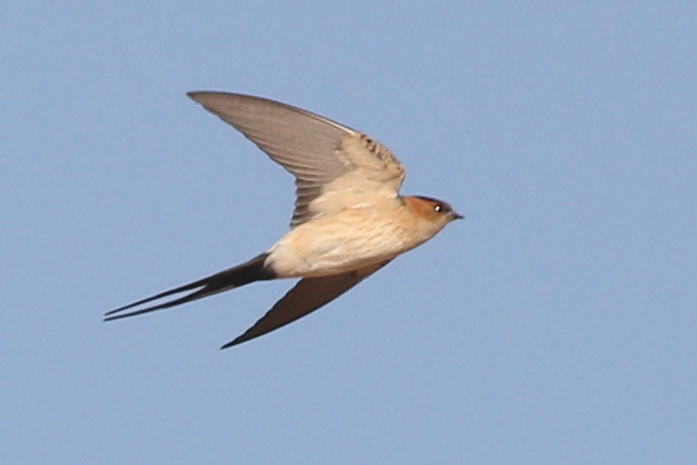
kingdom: Animalia
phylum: Chordata
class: Aves
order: Passeriformes
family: Hirundinidae
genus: Cecropis
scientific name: Cecropis daurica
